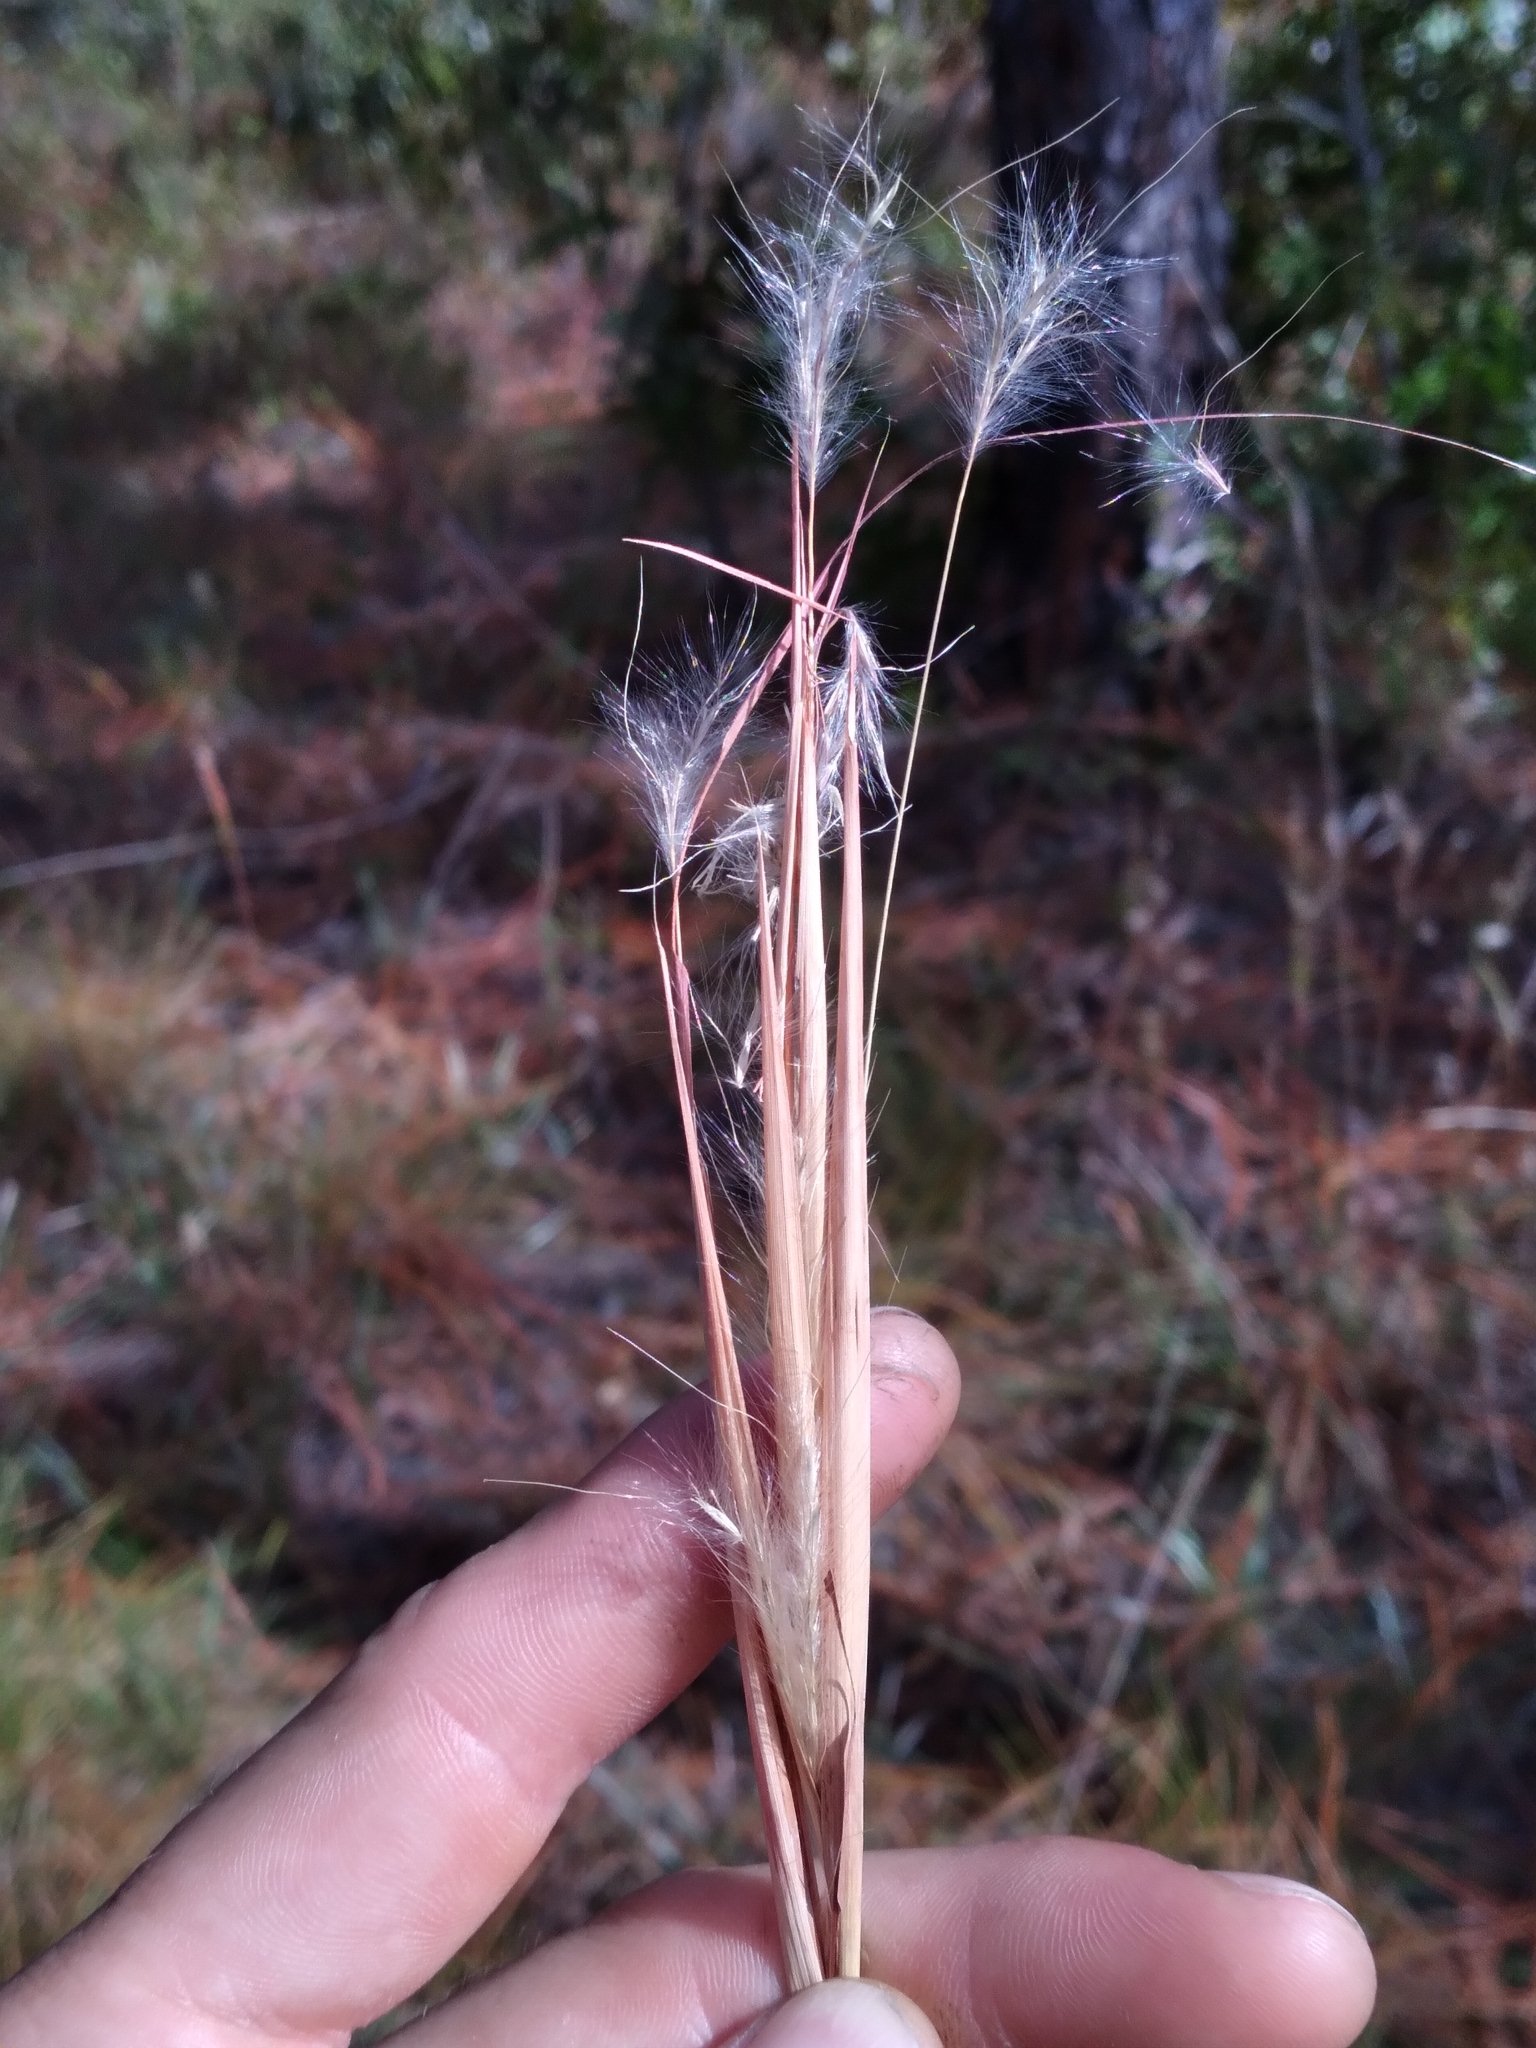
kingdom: Plantae
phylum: Tracheophyta
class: Liliopsida
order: Poales
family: Poaceae
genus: Andropogon
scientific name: Andropogon gyrans
